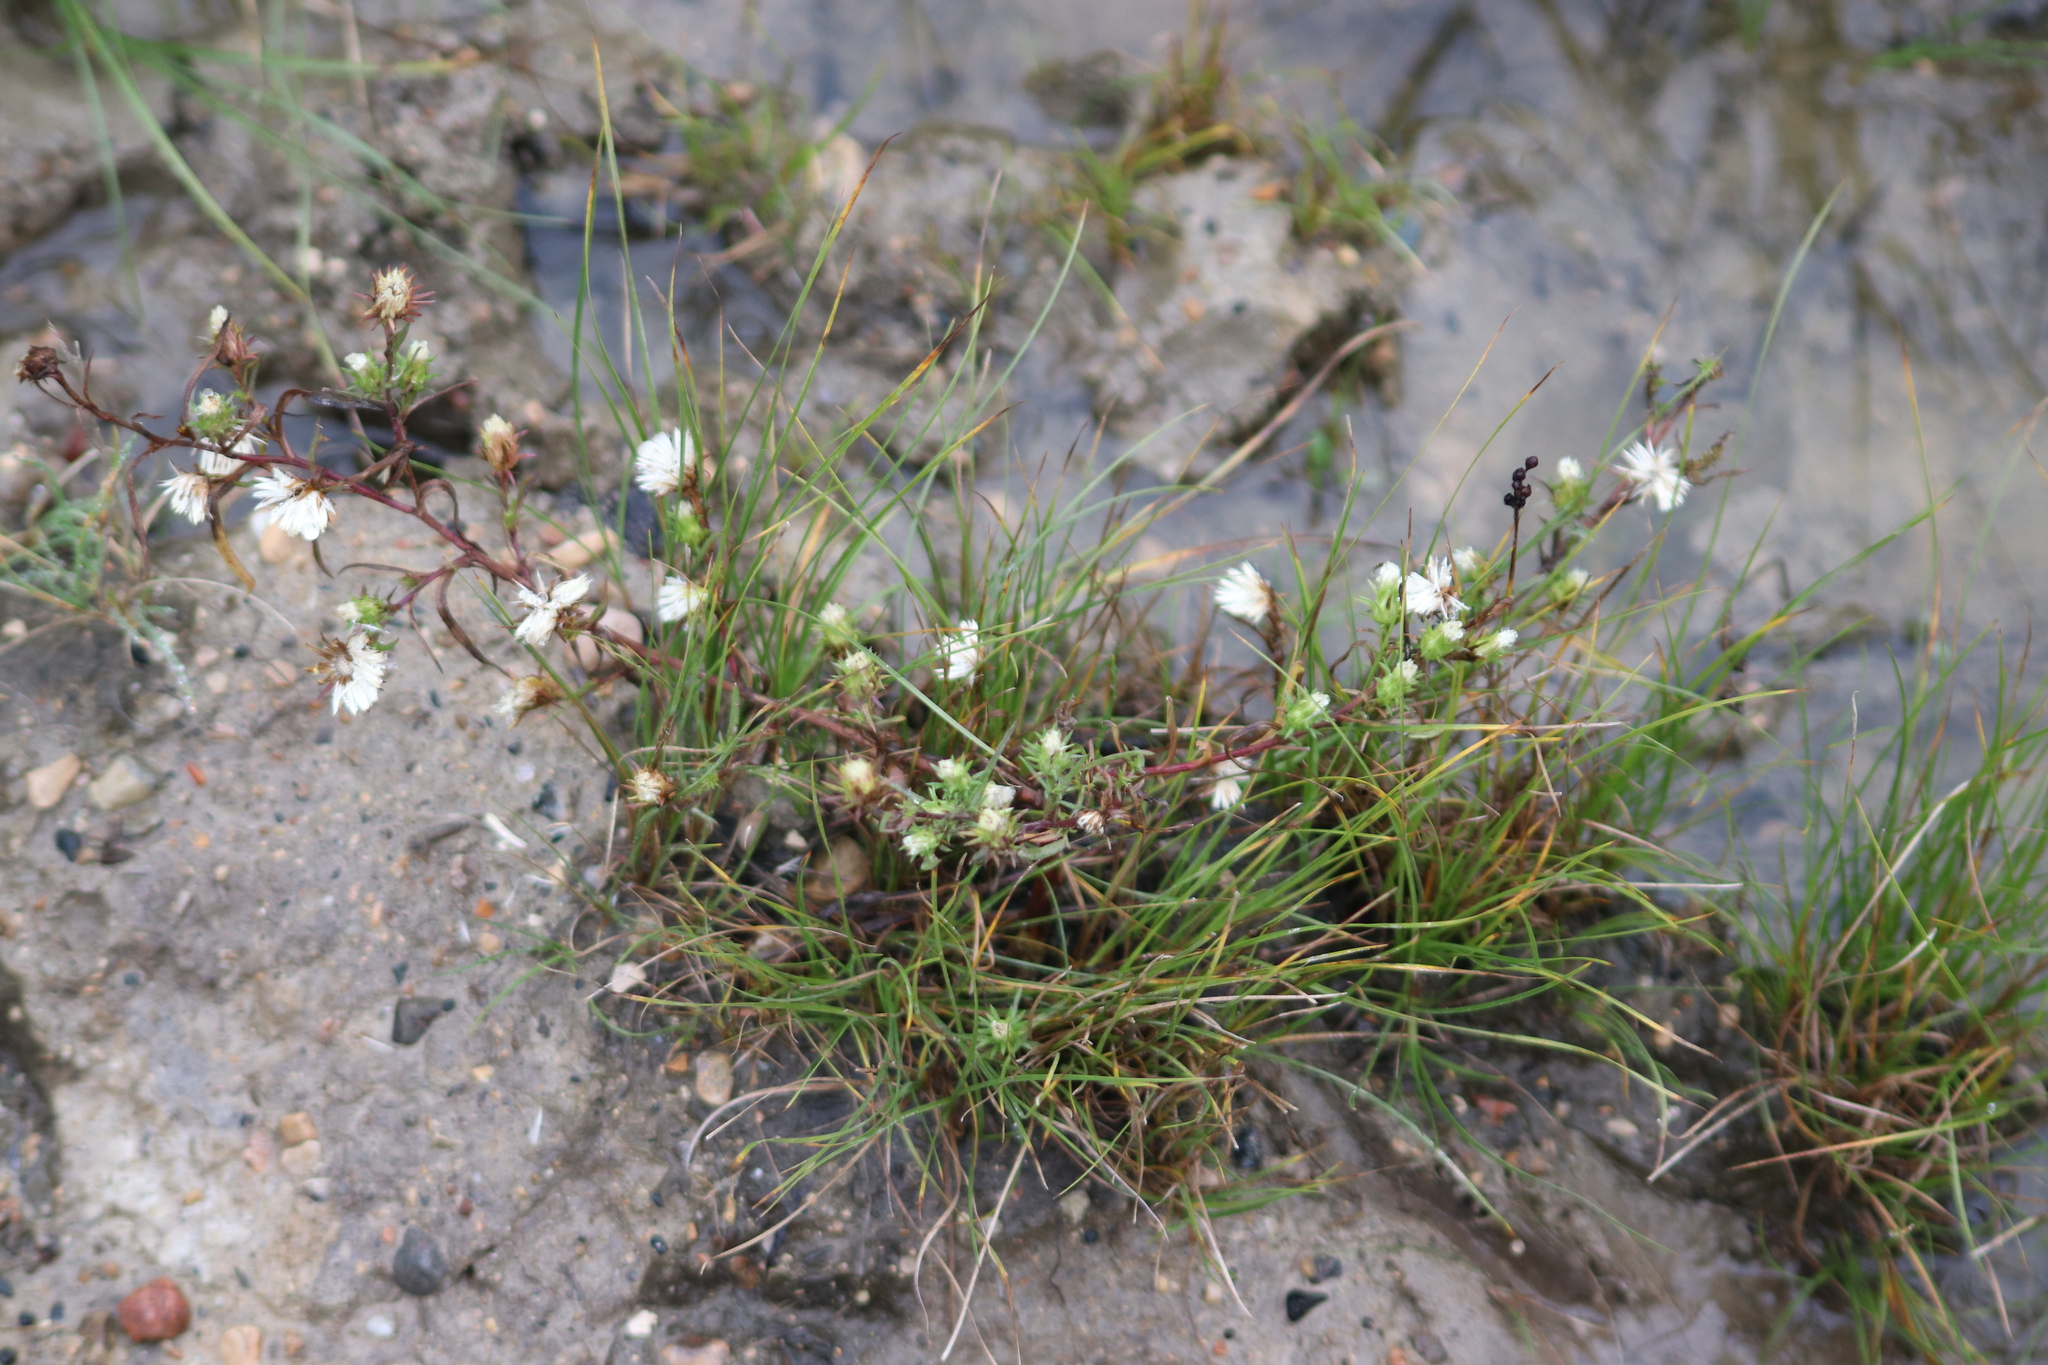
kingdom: Plantae
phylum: Tracheophyta
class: Magnoliopsida
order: Asterales
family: Asteraceae
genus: Symphyotrichum
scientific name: Symphyotrichum ciliatum
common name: Rayless annual aster
